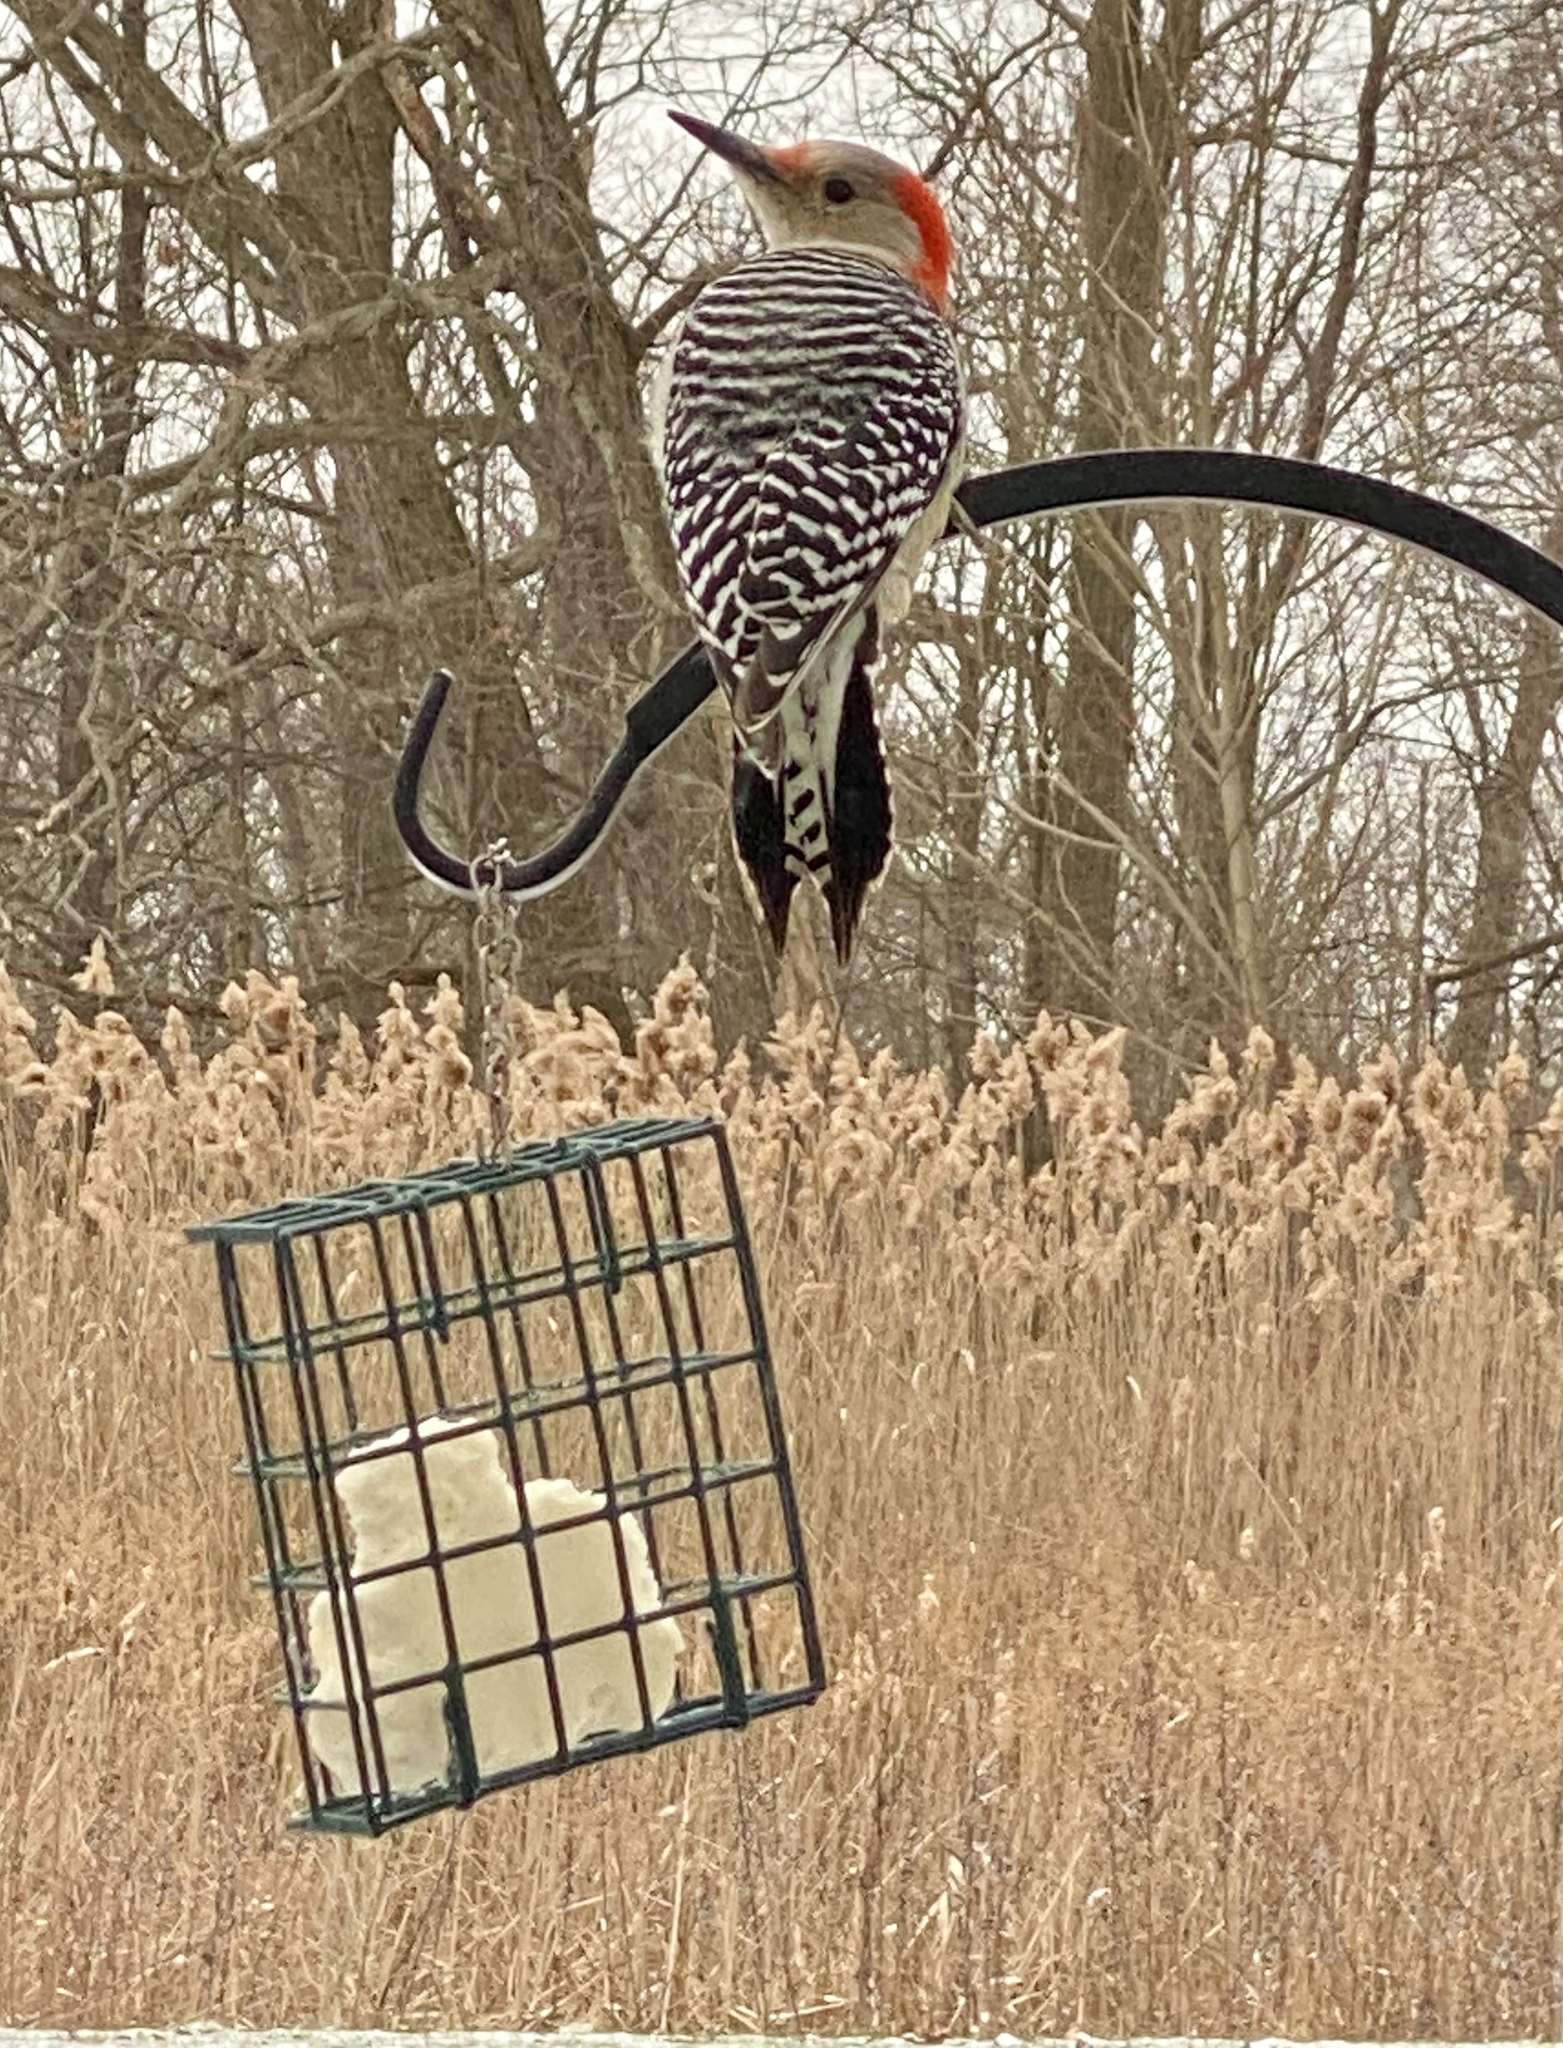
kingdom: Animalia
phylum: Chordata
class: Aves
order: Piciformes
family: Picidae
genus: Melanerpes
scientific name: Melanerpes carolinus
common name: Red-bellied woodpecker
